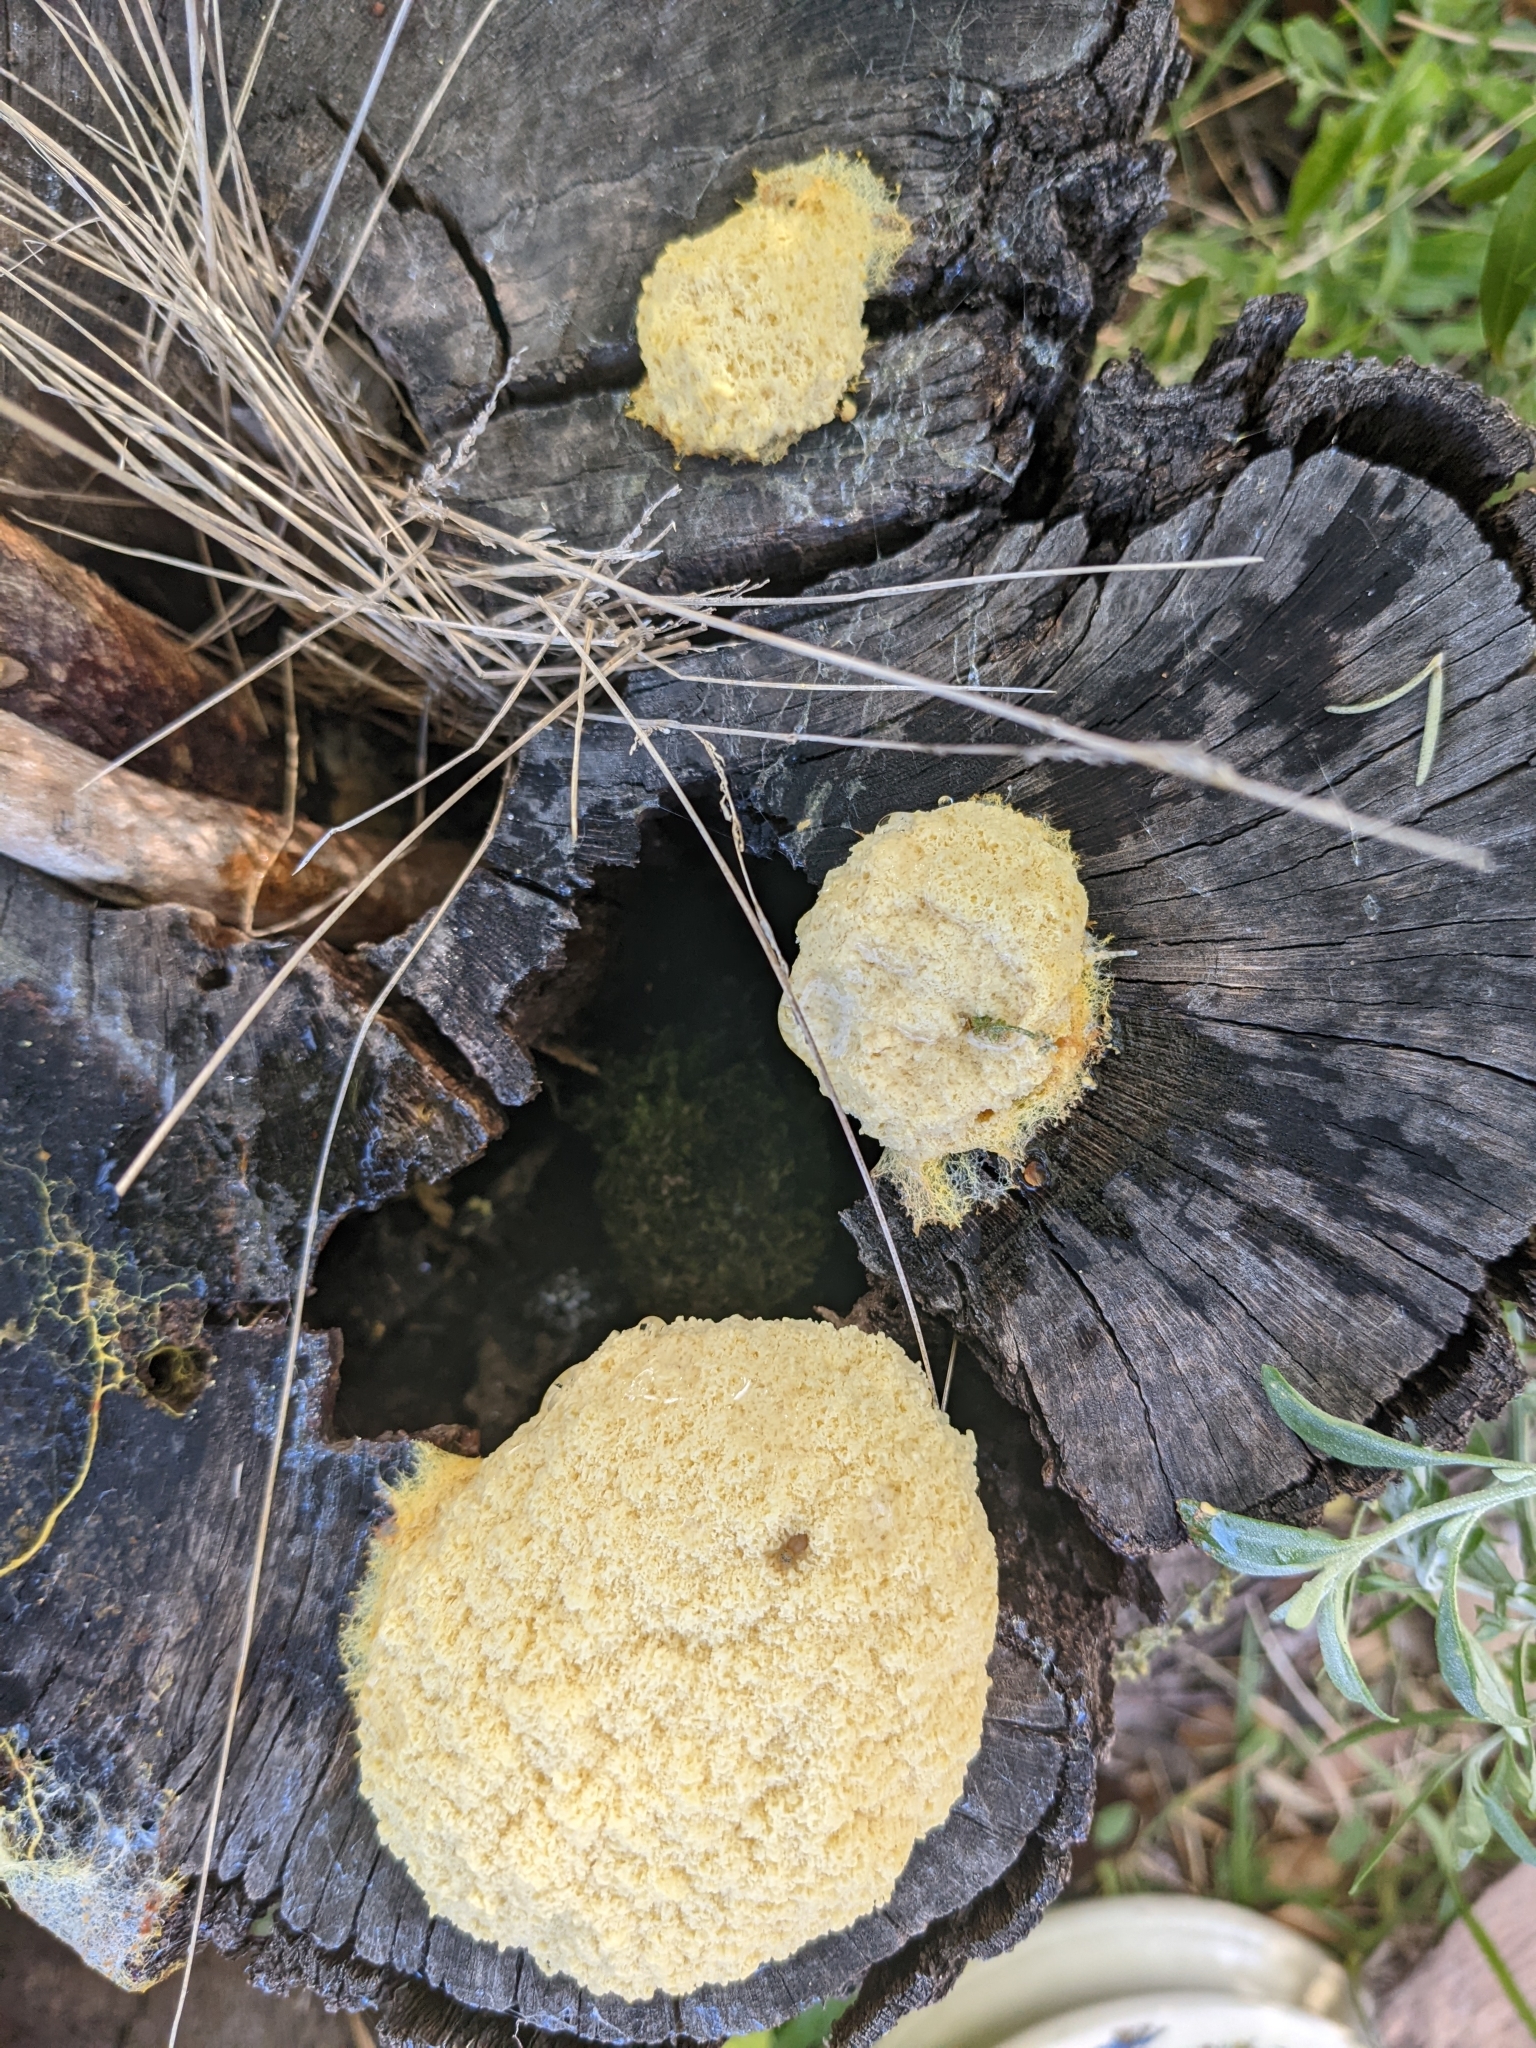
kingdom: Protozoa
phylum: Mycetozoa
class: Myxomycetes
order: Physarales
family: Physaraceae
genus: Fuligo
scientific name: Fuligo septica
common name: Dog vomit slime mold
